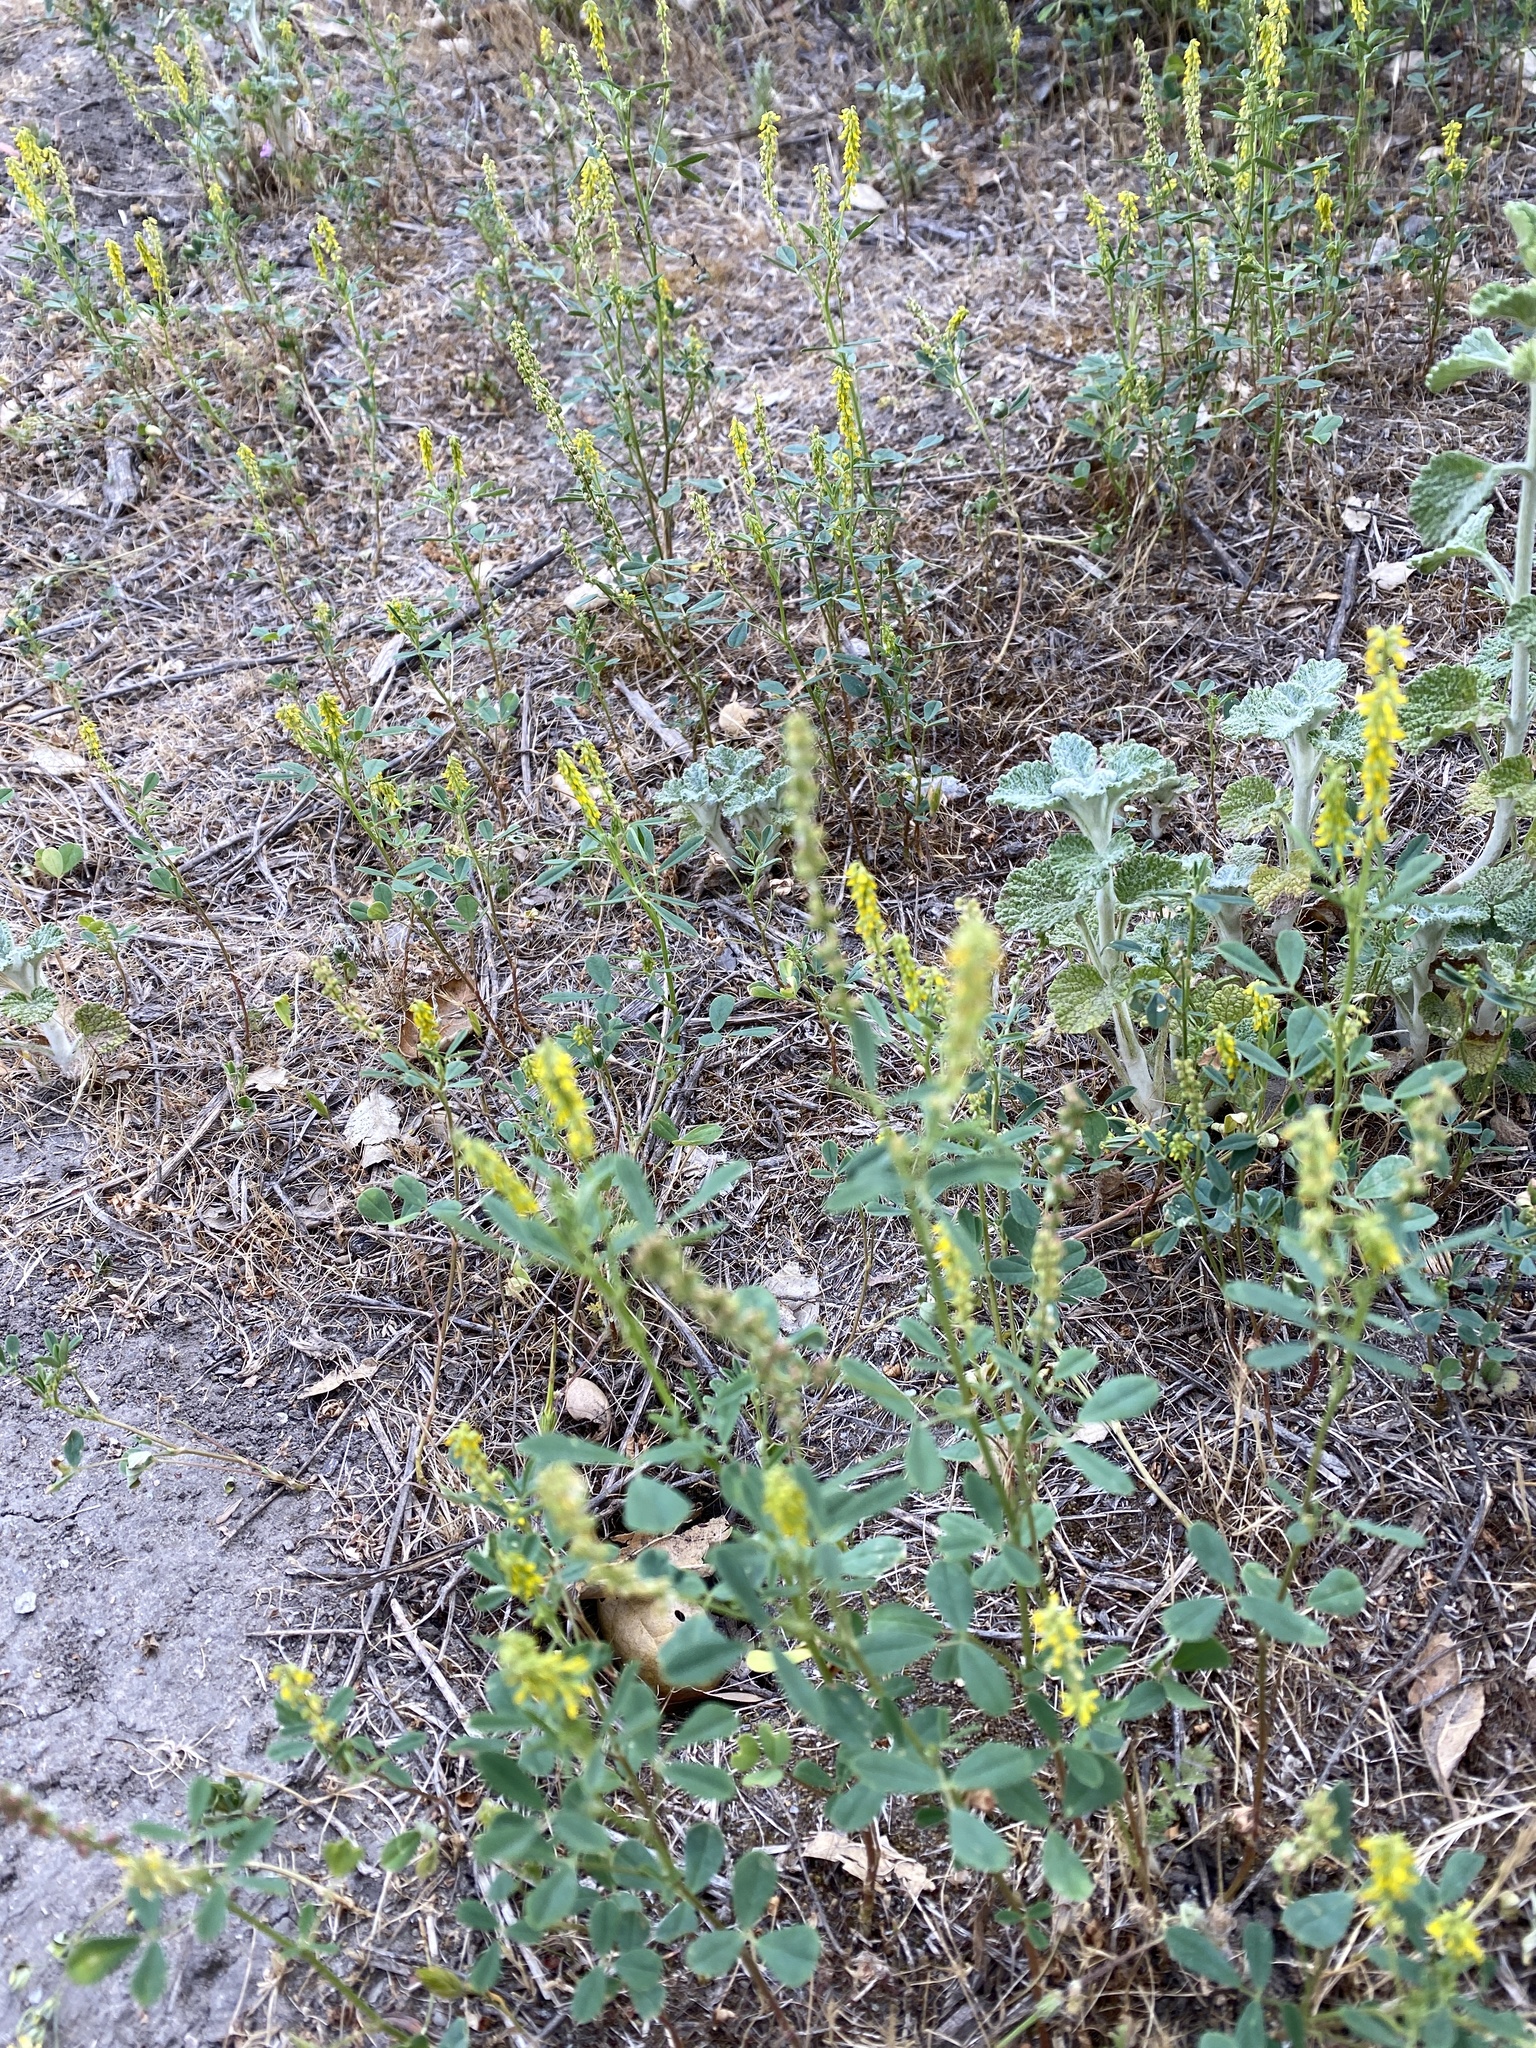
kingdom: Plantae
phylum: Tracheophyta
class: Magnoliopsida
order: Fabales
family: Fabaceae
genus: Melilotus
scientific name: Melilotus indicus
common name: Small melilot
